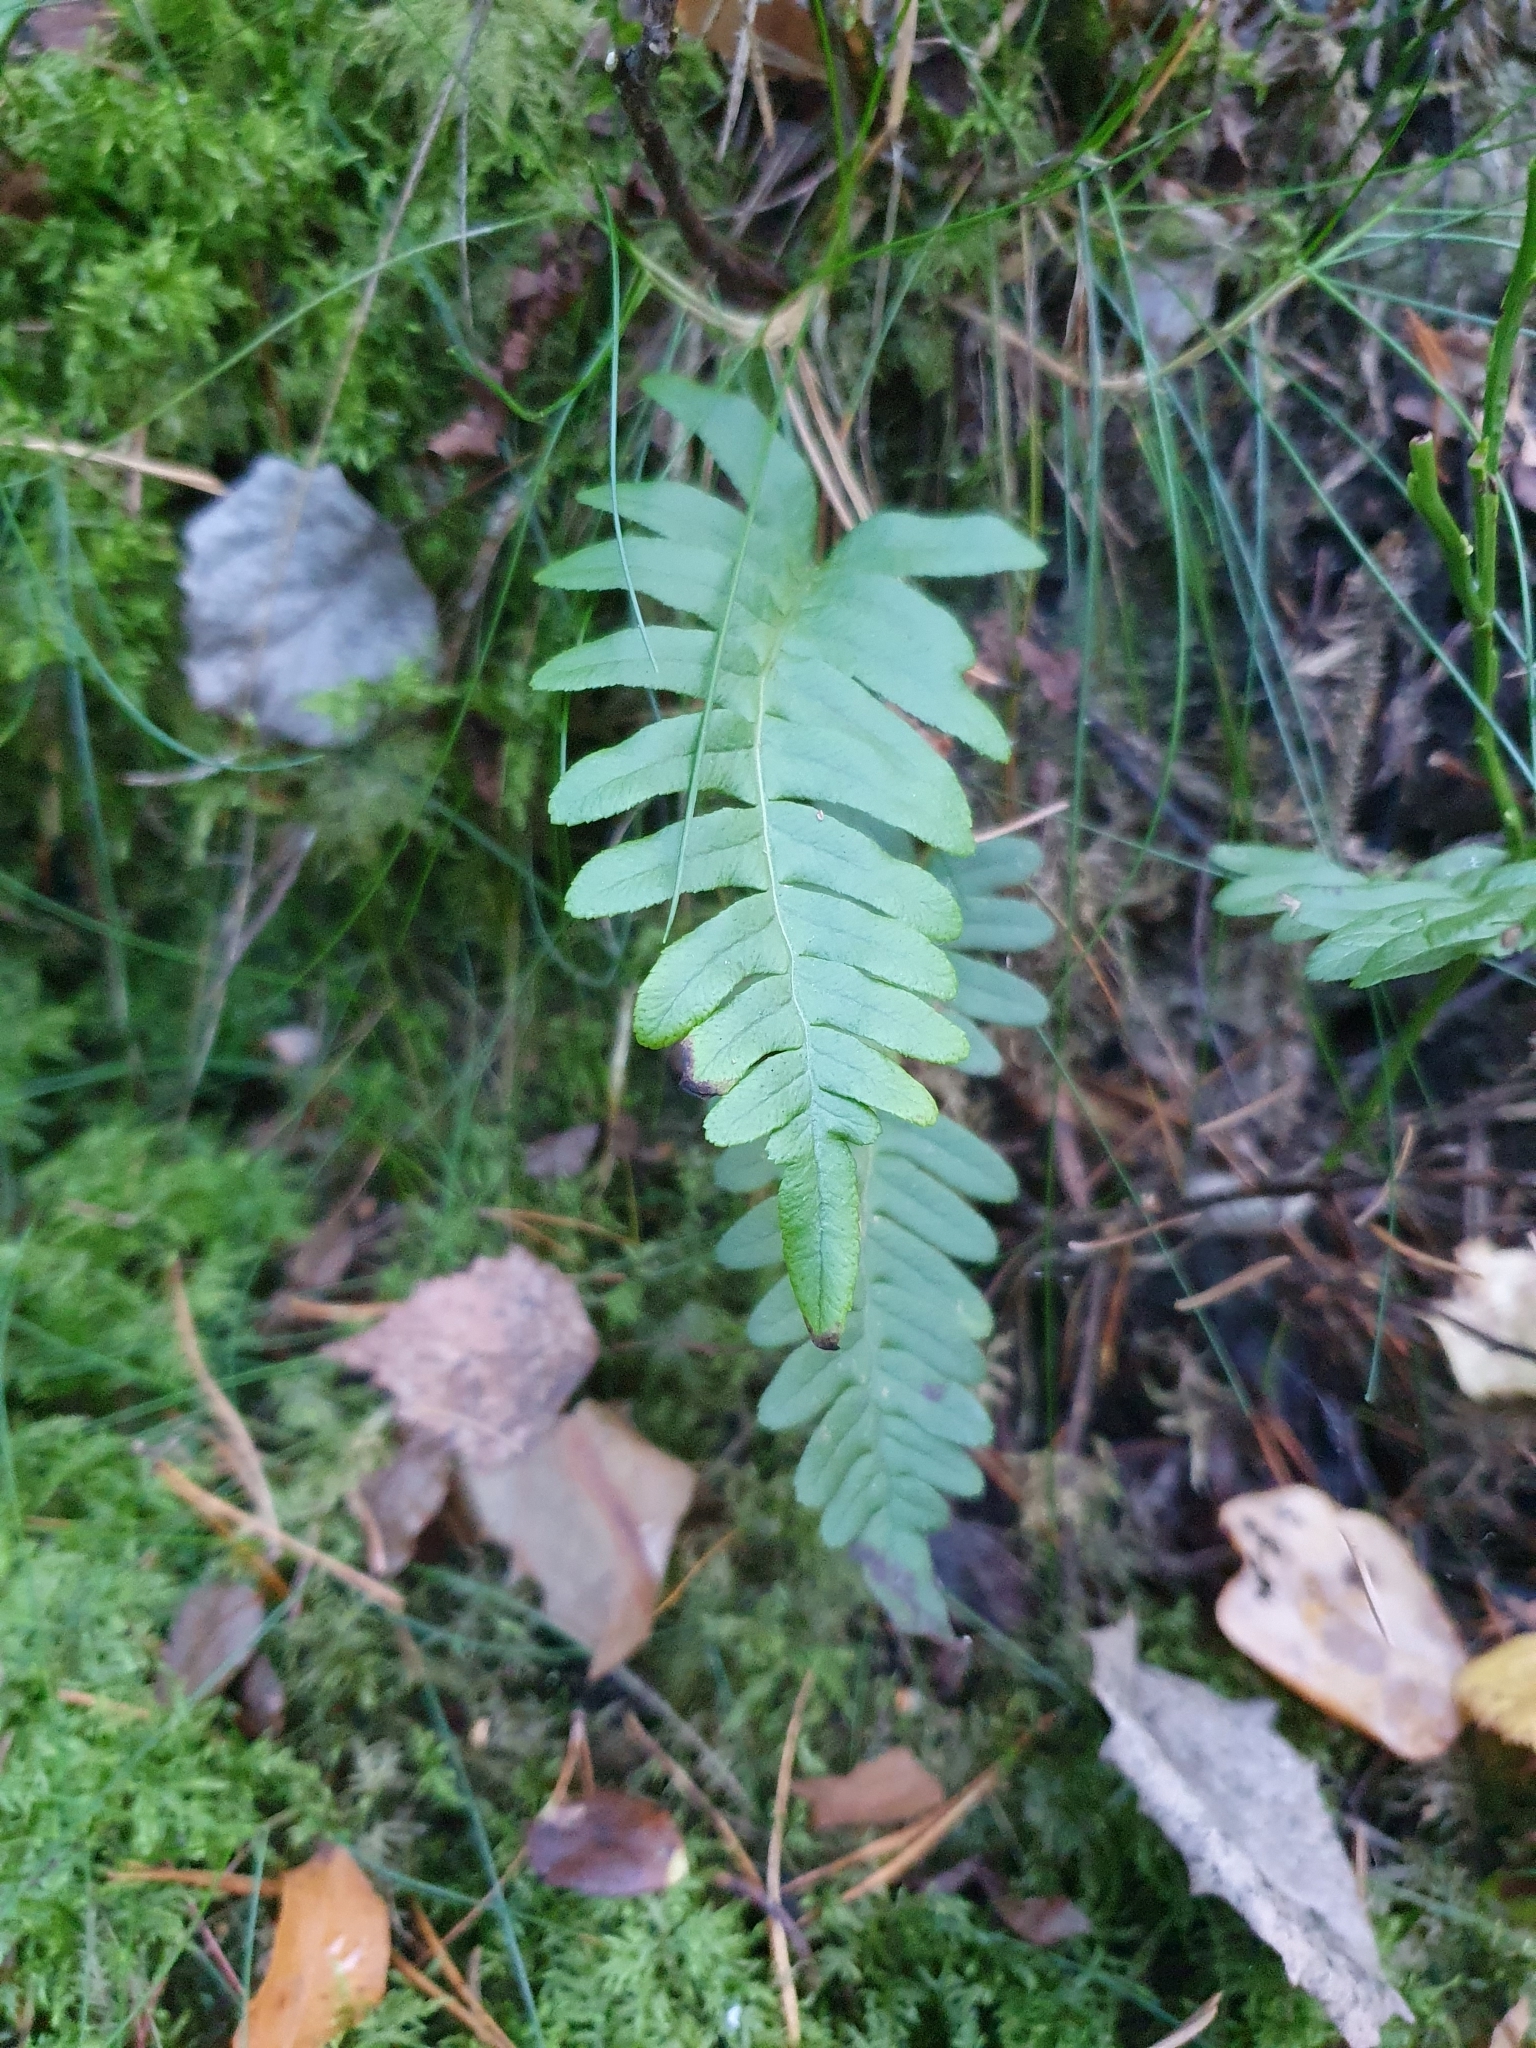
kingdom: Plantae
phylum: Tracheophyta
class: Polypodiopsida
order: Polypodiales
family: Polypodiaceae
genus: Polypodium
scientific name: Polypodium vulgare
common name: Common polypody
